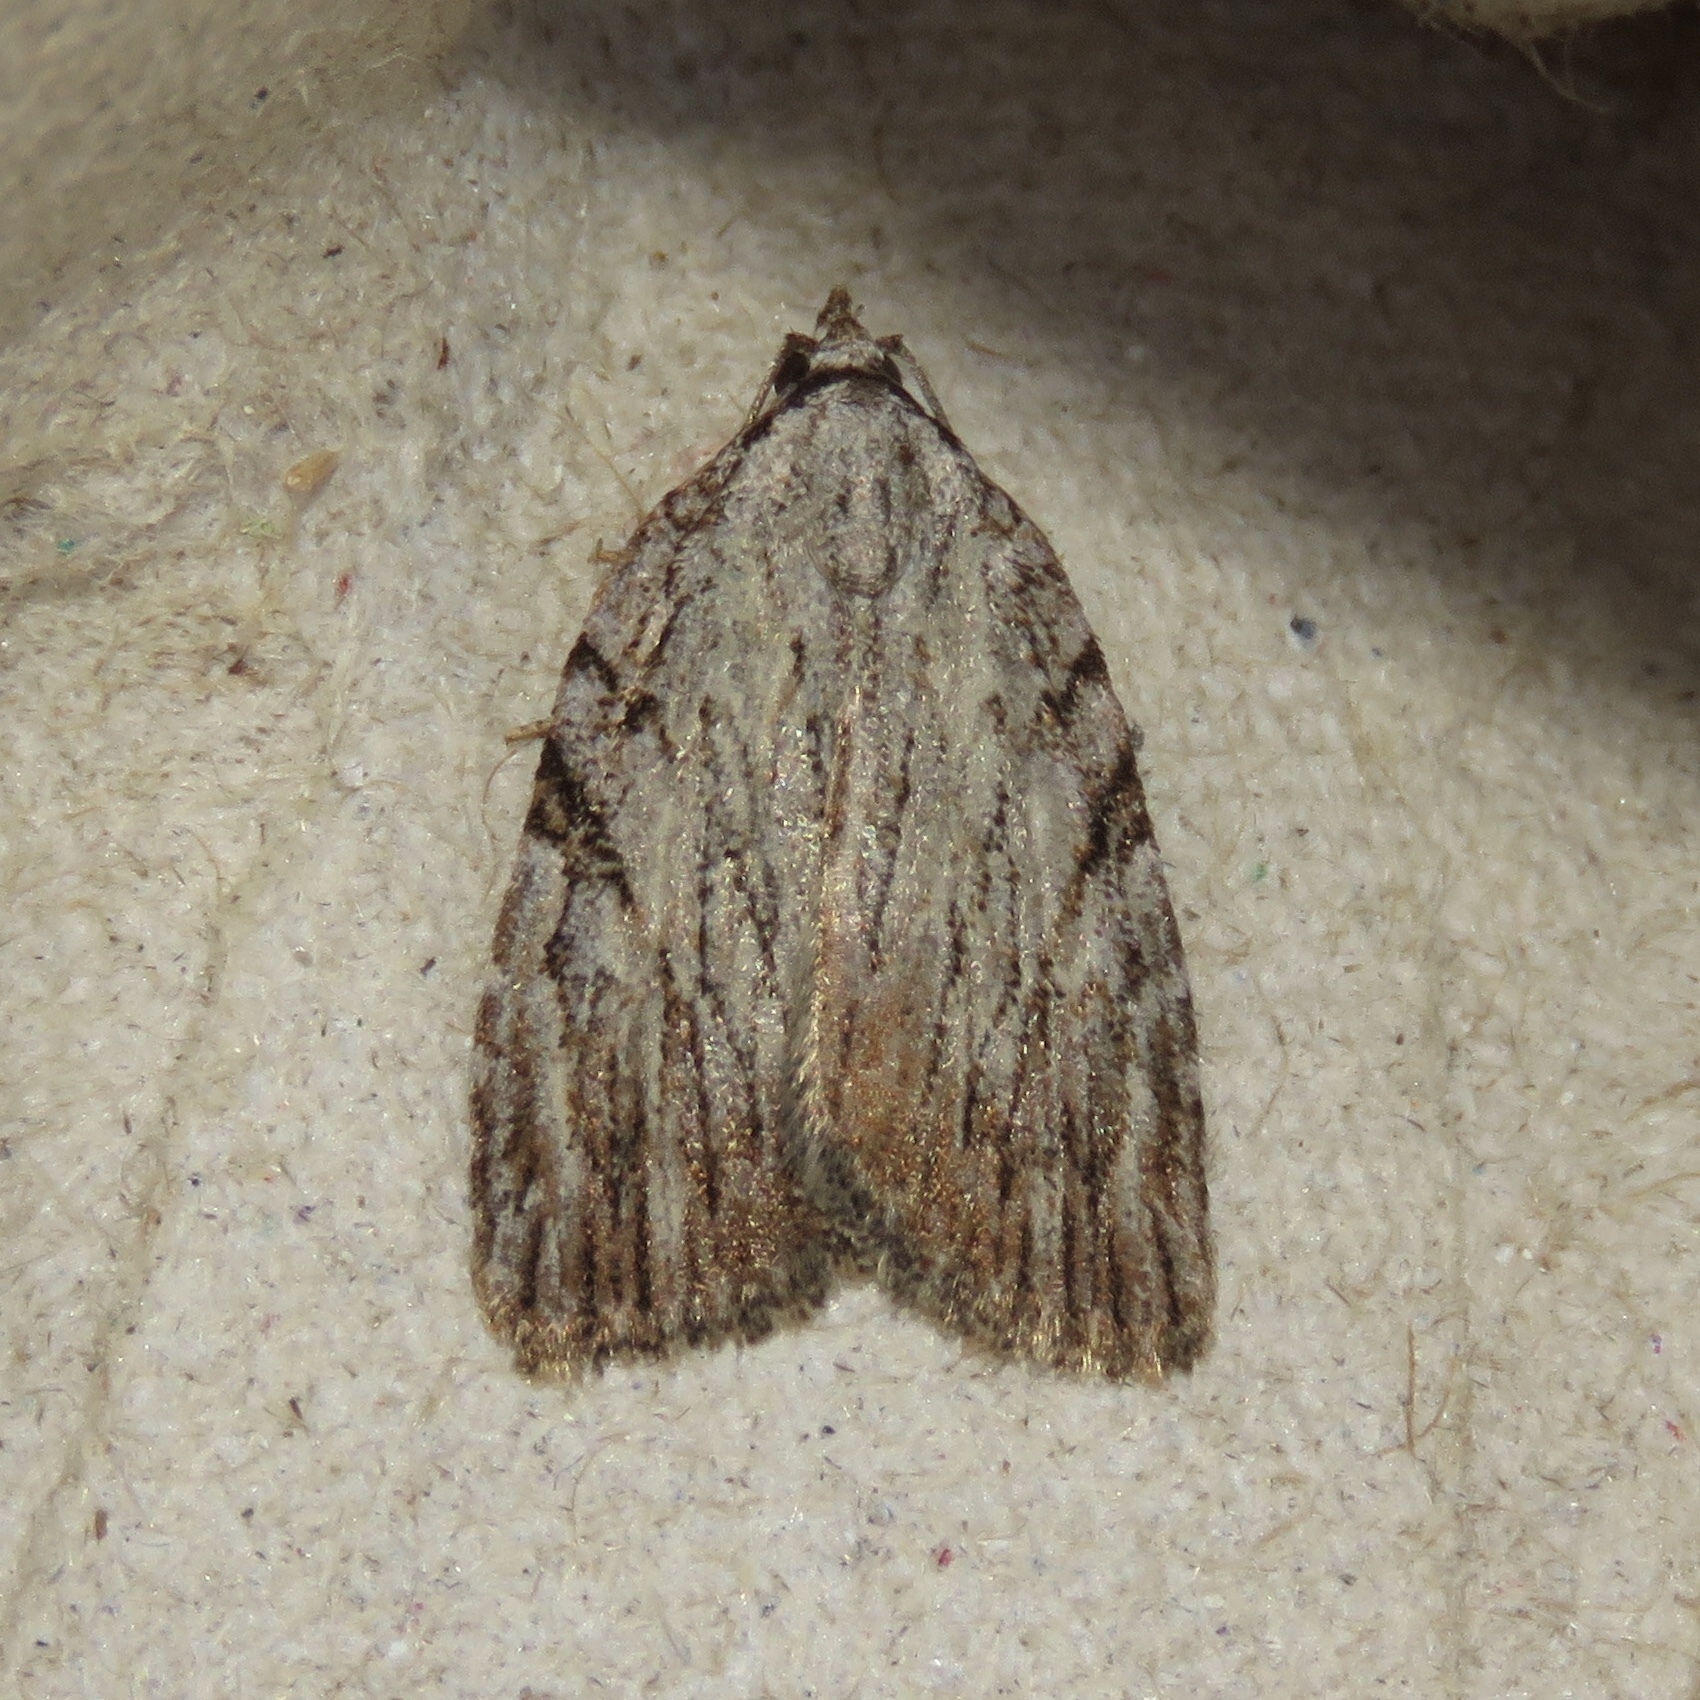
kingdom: Animalia
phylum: Arthropoda
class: Insecta
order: Lepidoptera
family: Noctuidae
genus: Balsa
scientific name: Balsa tristrigella
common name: Three-lined balsa moth
